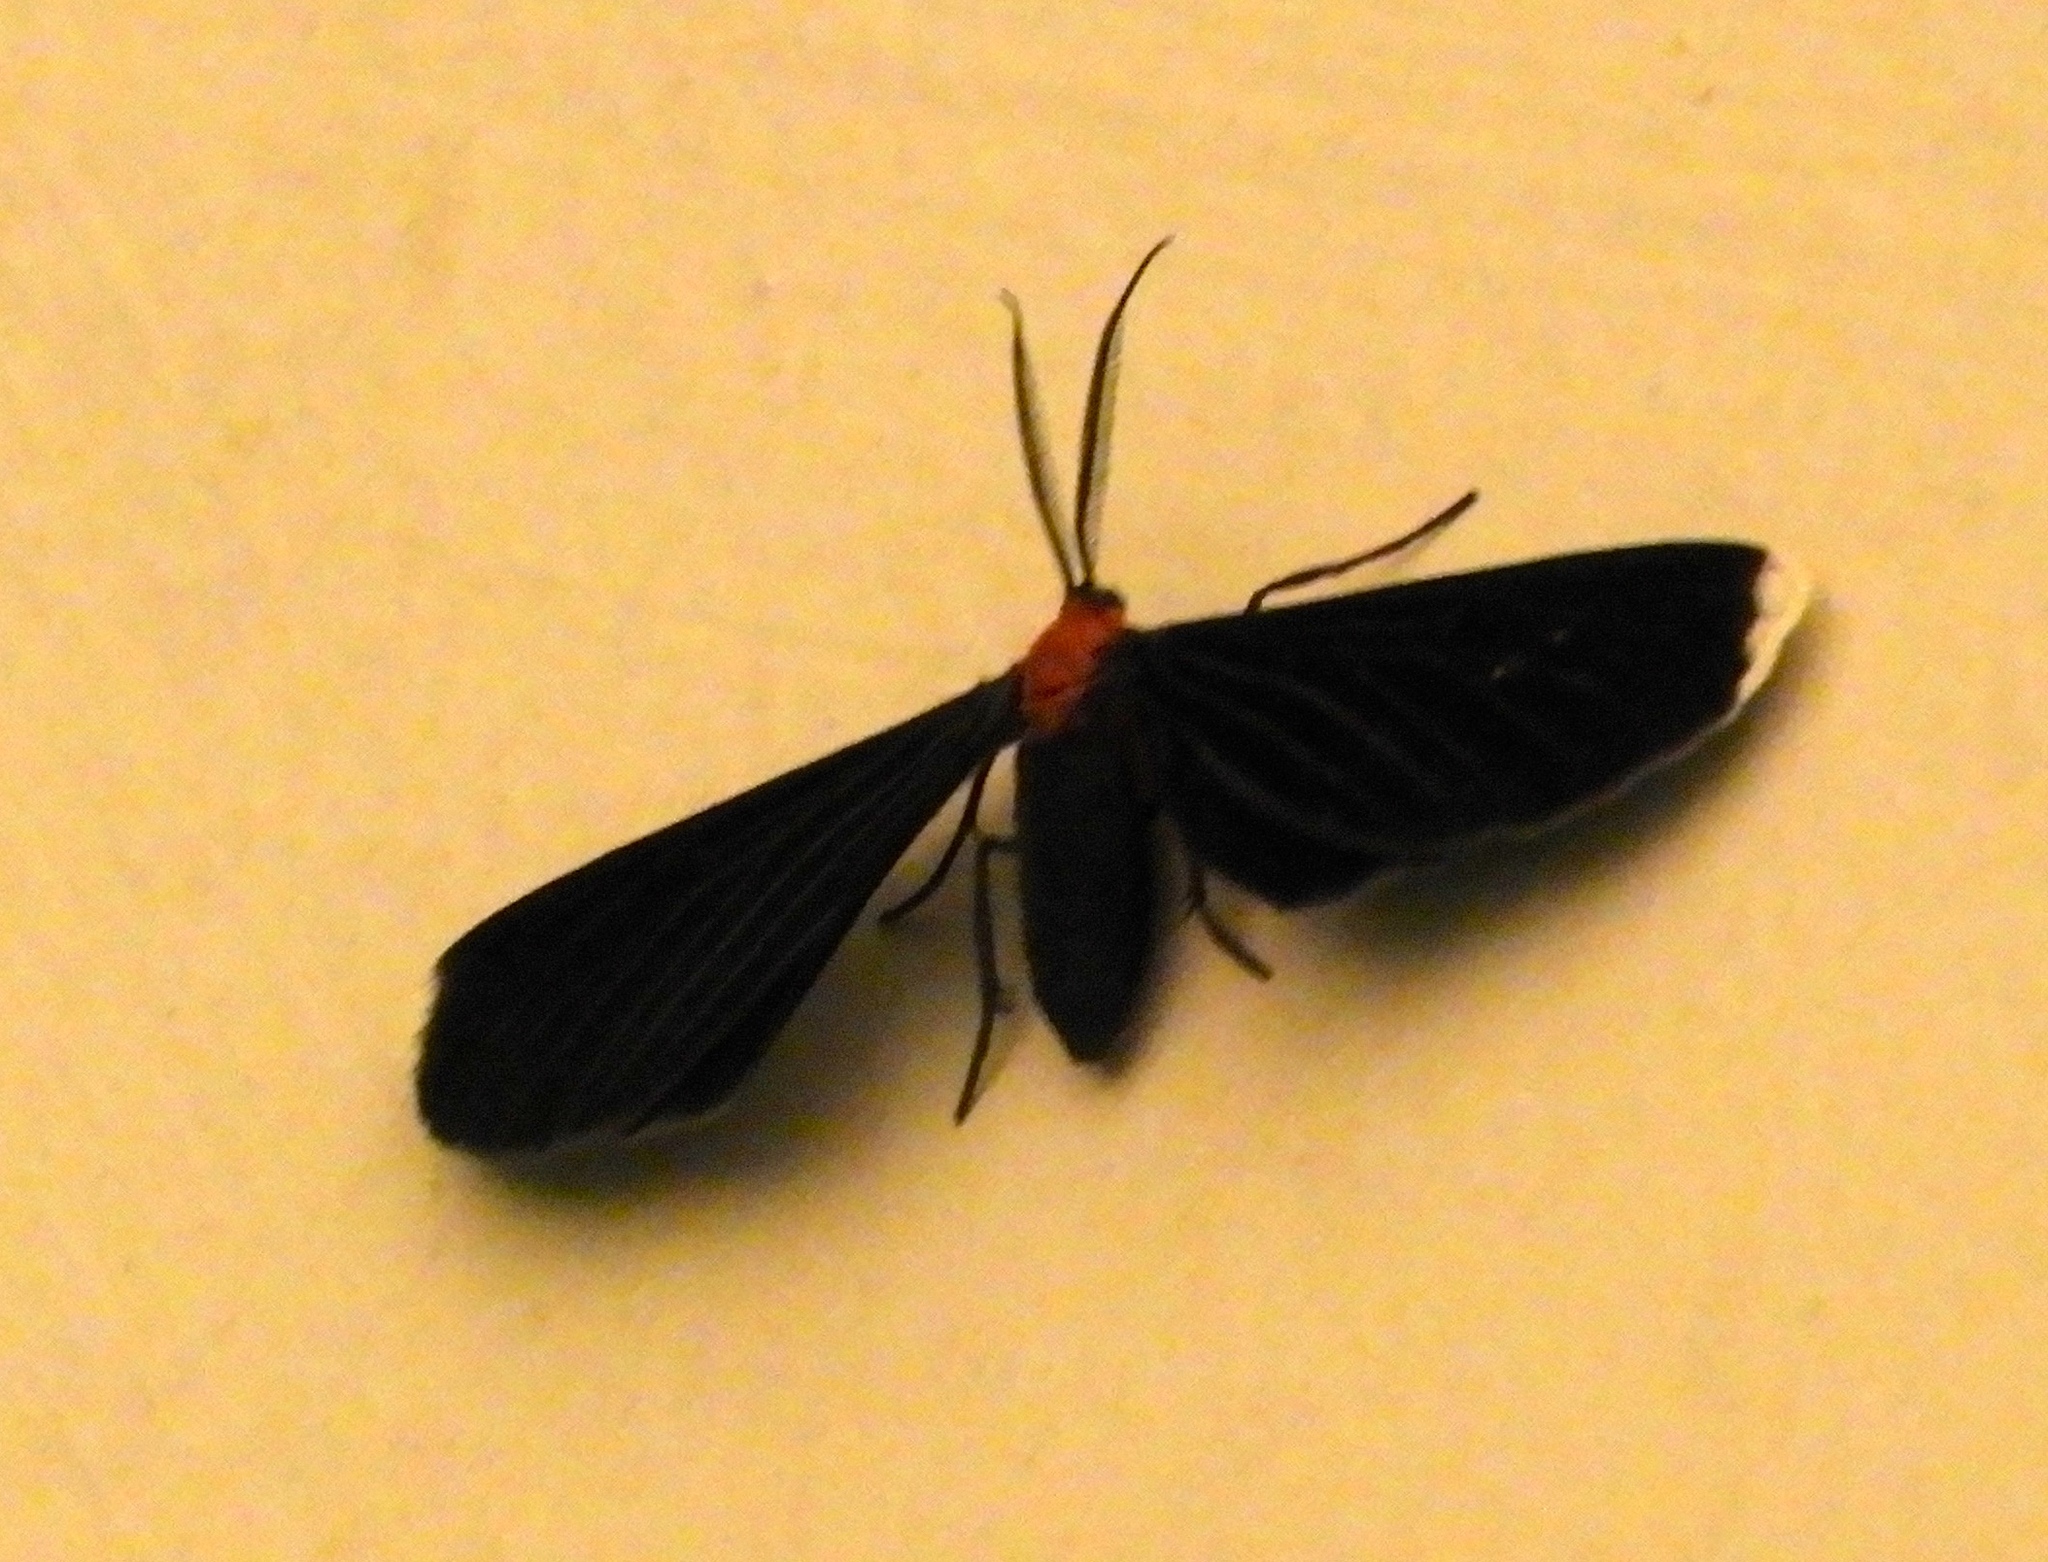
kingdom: Animalia
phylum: Arthropoda
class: Insecta
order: Lepidoptera
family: Geometridae
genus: Melanchroia
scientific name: Melanchroia chephise
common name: White-tipped black
